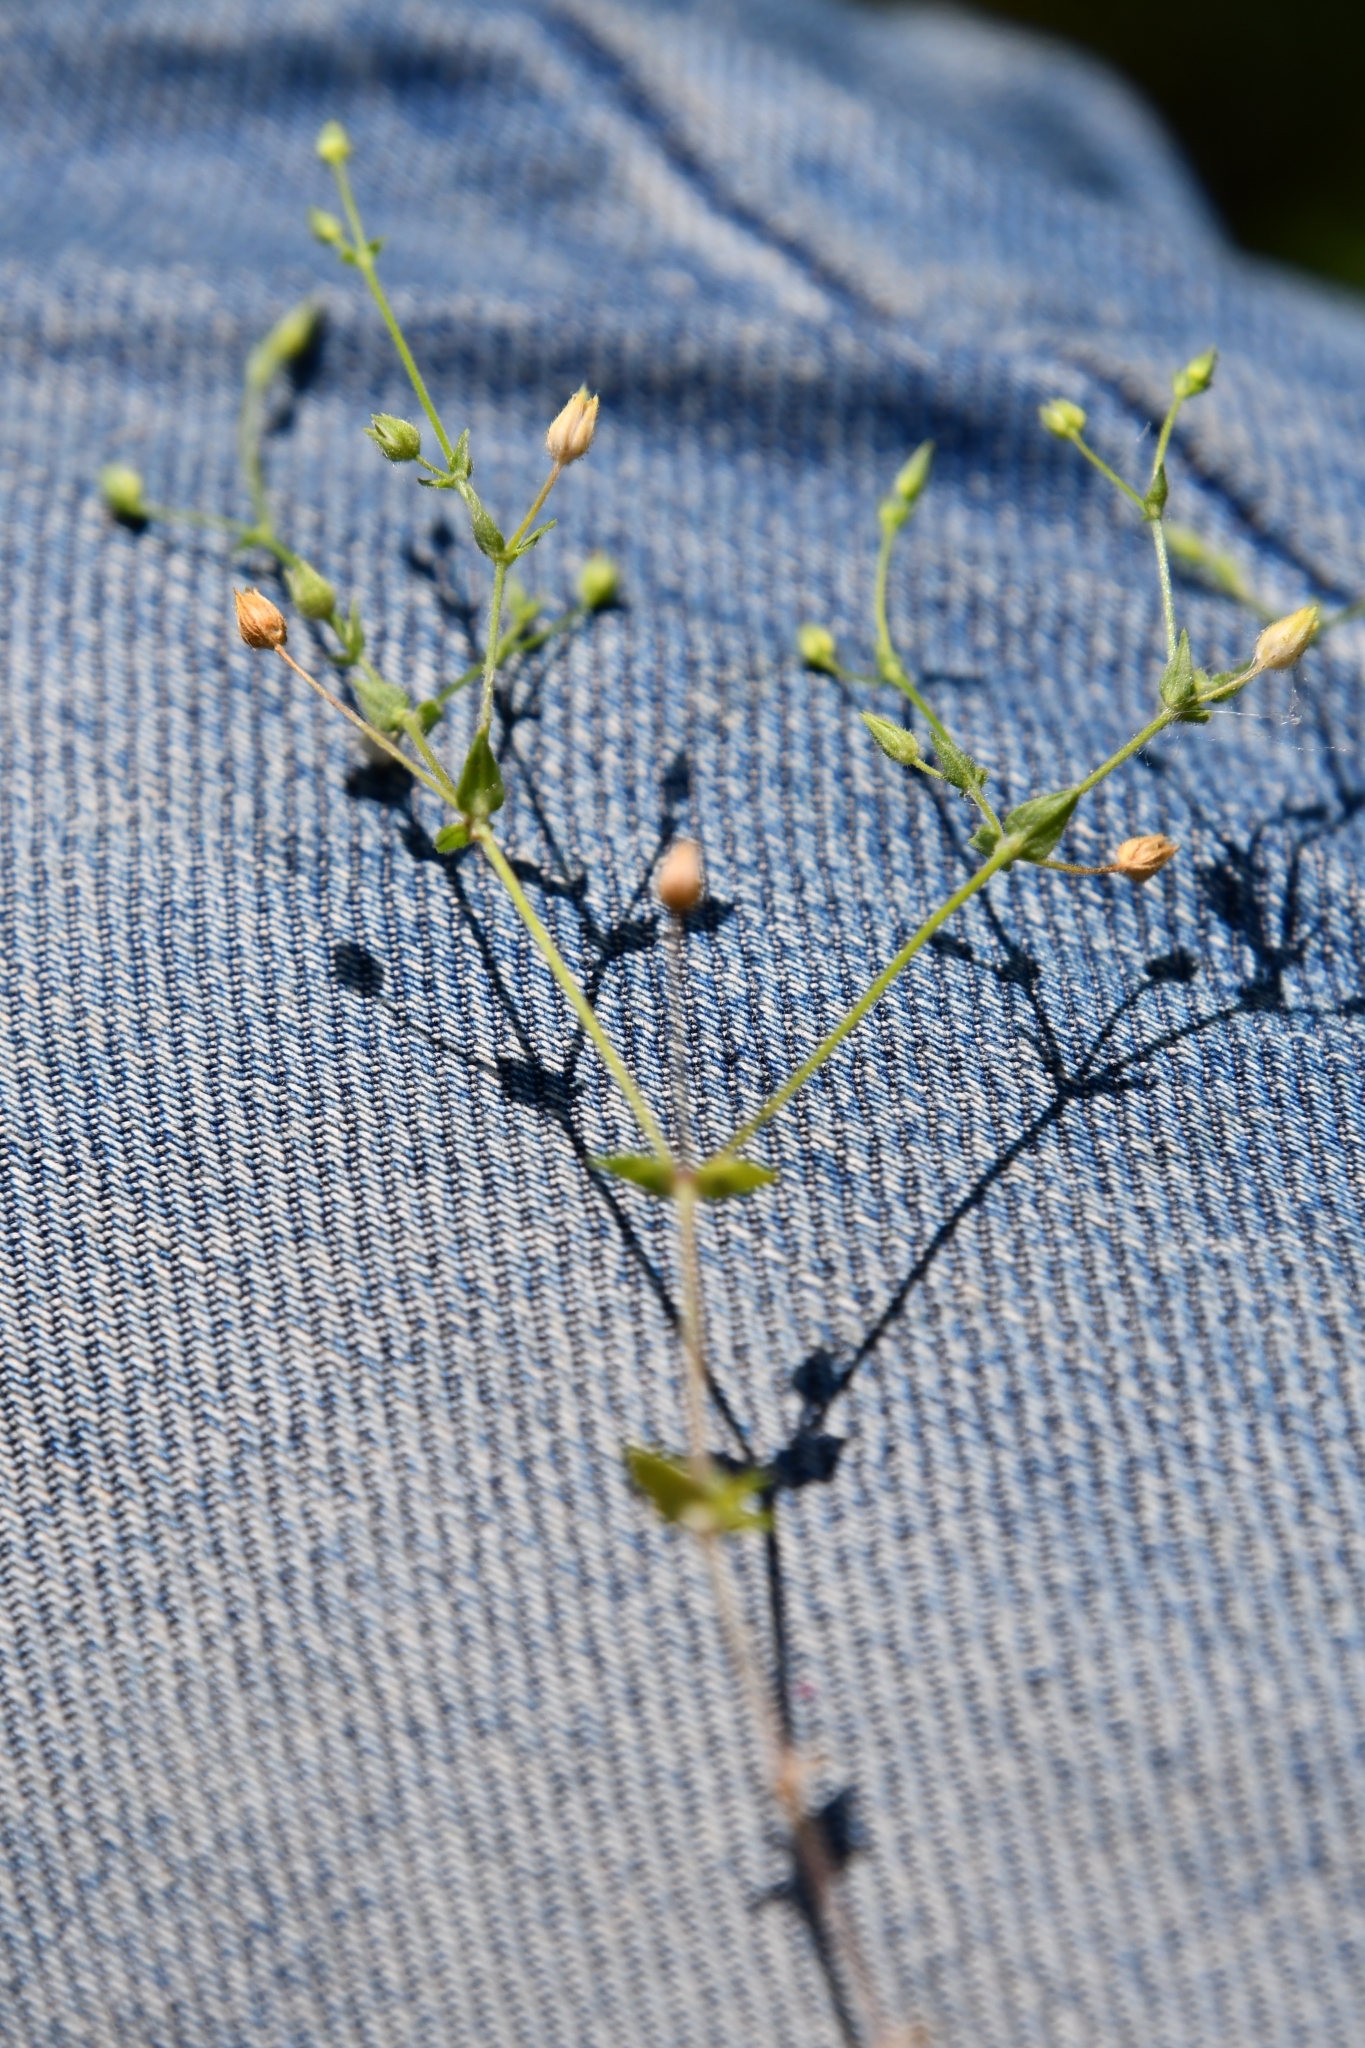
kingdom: Plantae
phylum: Tracheophyta
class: Magnoliopsida
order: Caryophyllales
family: Caryophyllaceae
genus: Arenaria
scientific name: Arenaria serpyllifolia
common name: Thyme-leaved sandwort
